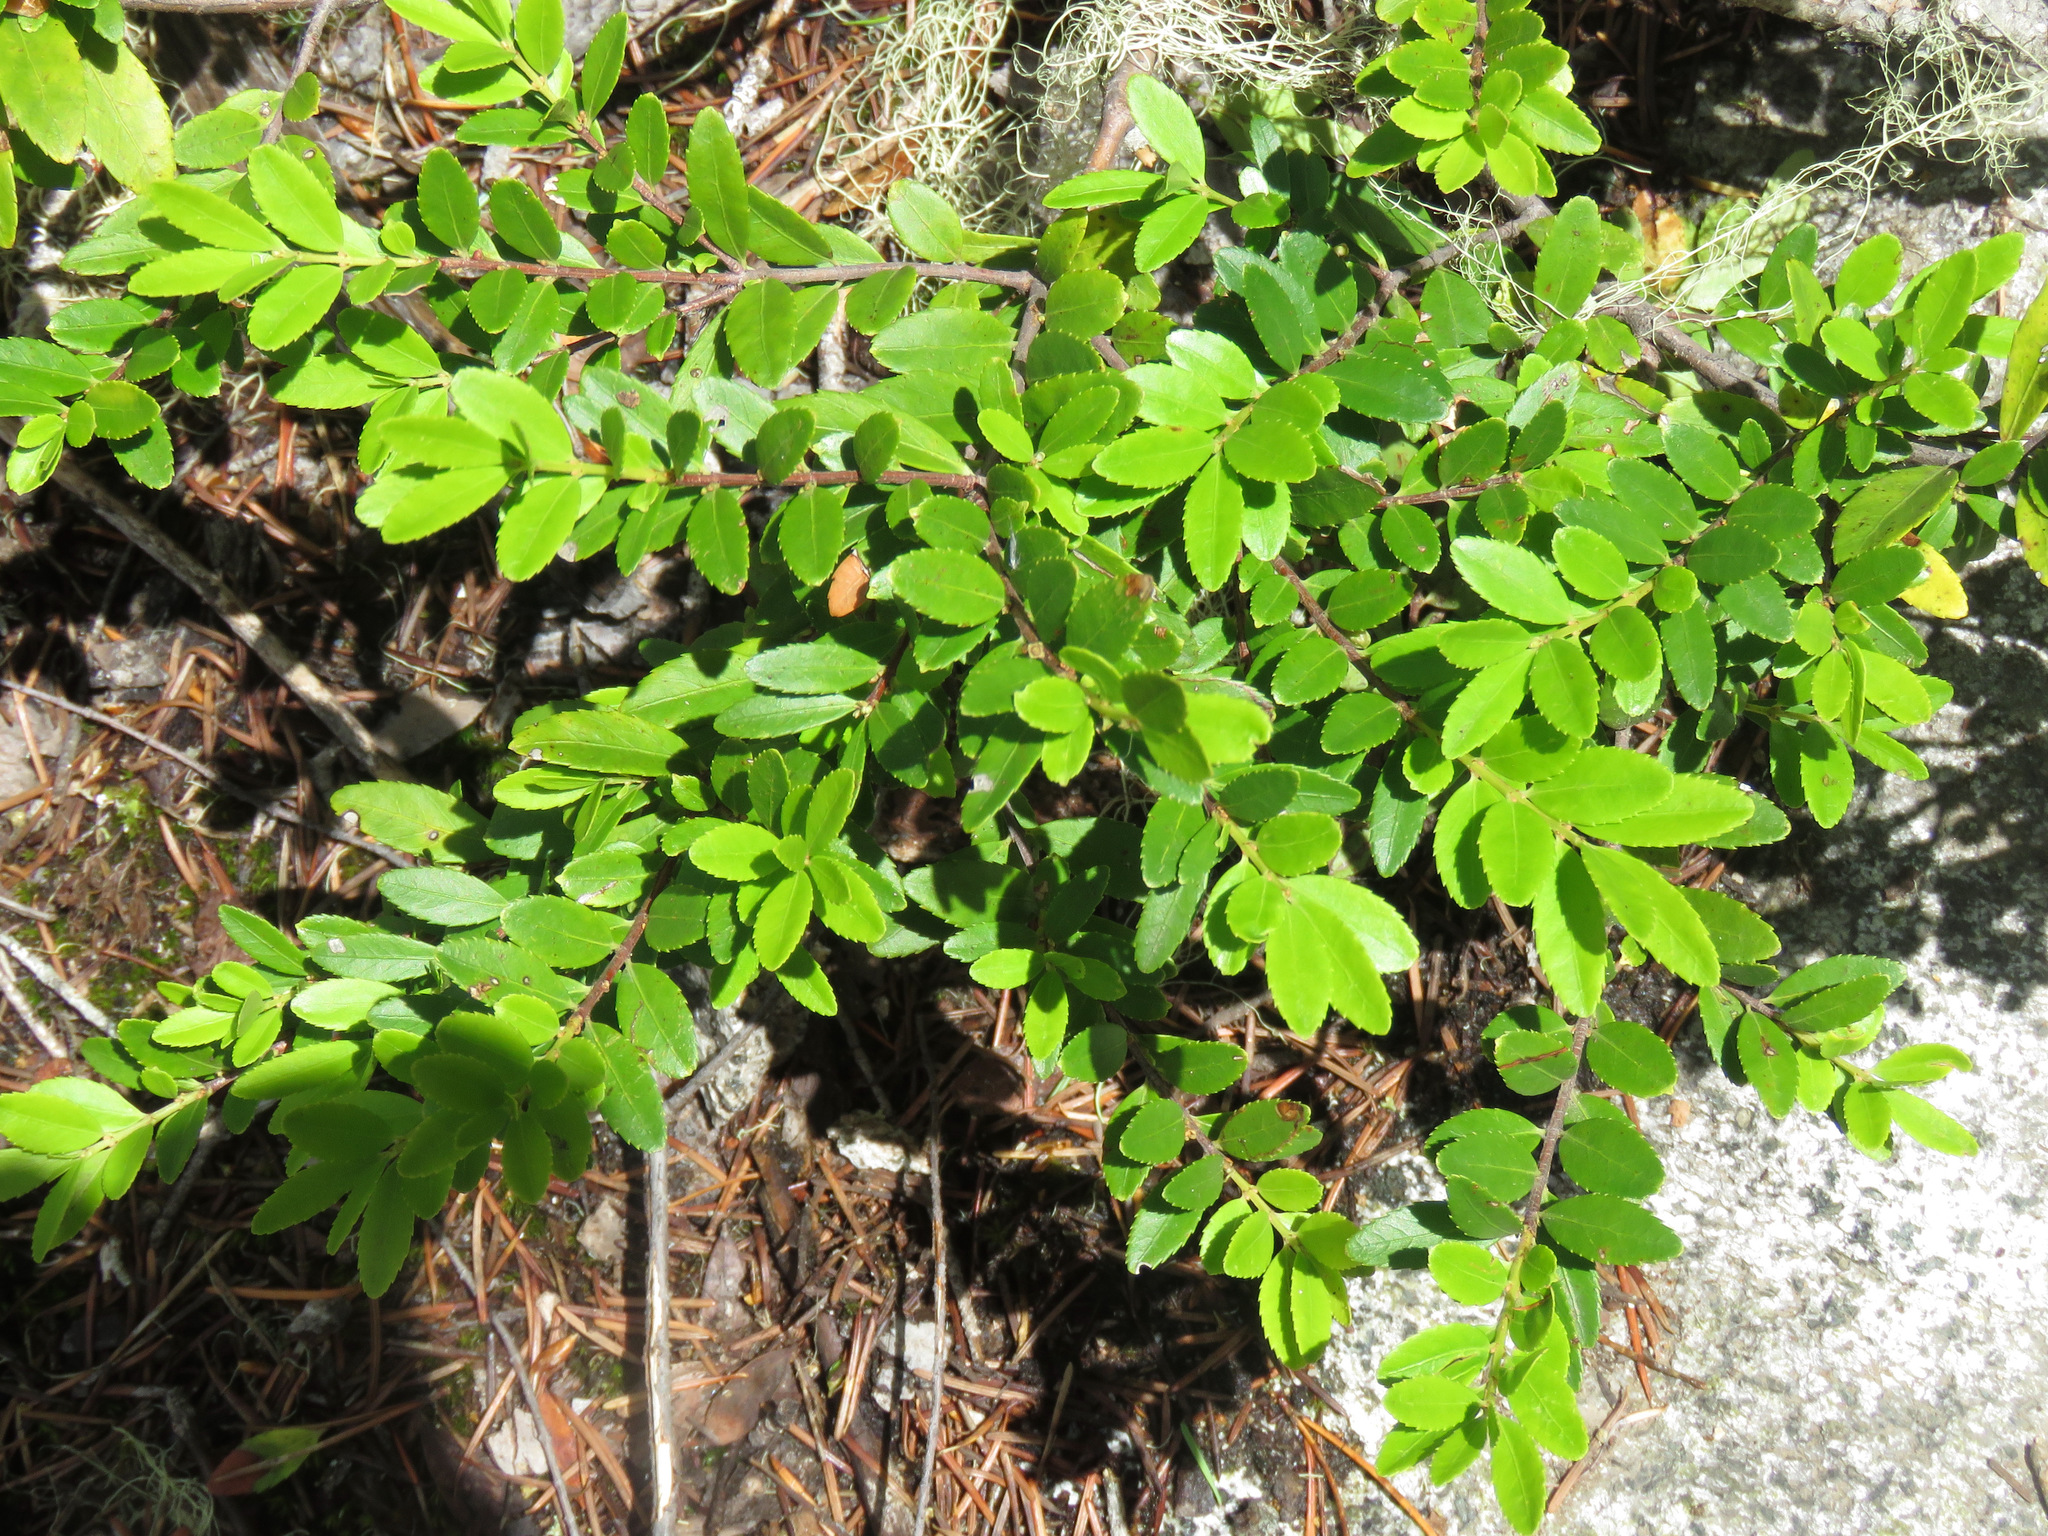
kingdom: Plantae
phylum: Tracheophyta
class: Magnoliopsida
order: Celastrales
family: Celastraceae
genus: Paxistima
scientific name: Paxistima myrsinites
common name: Mountain-lover
